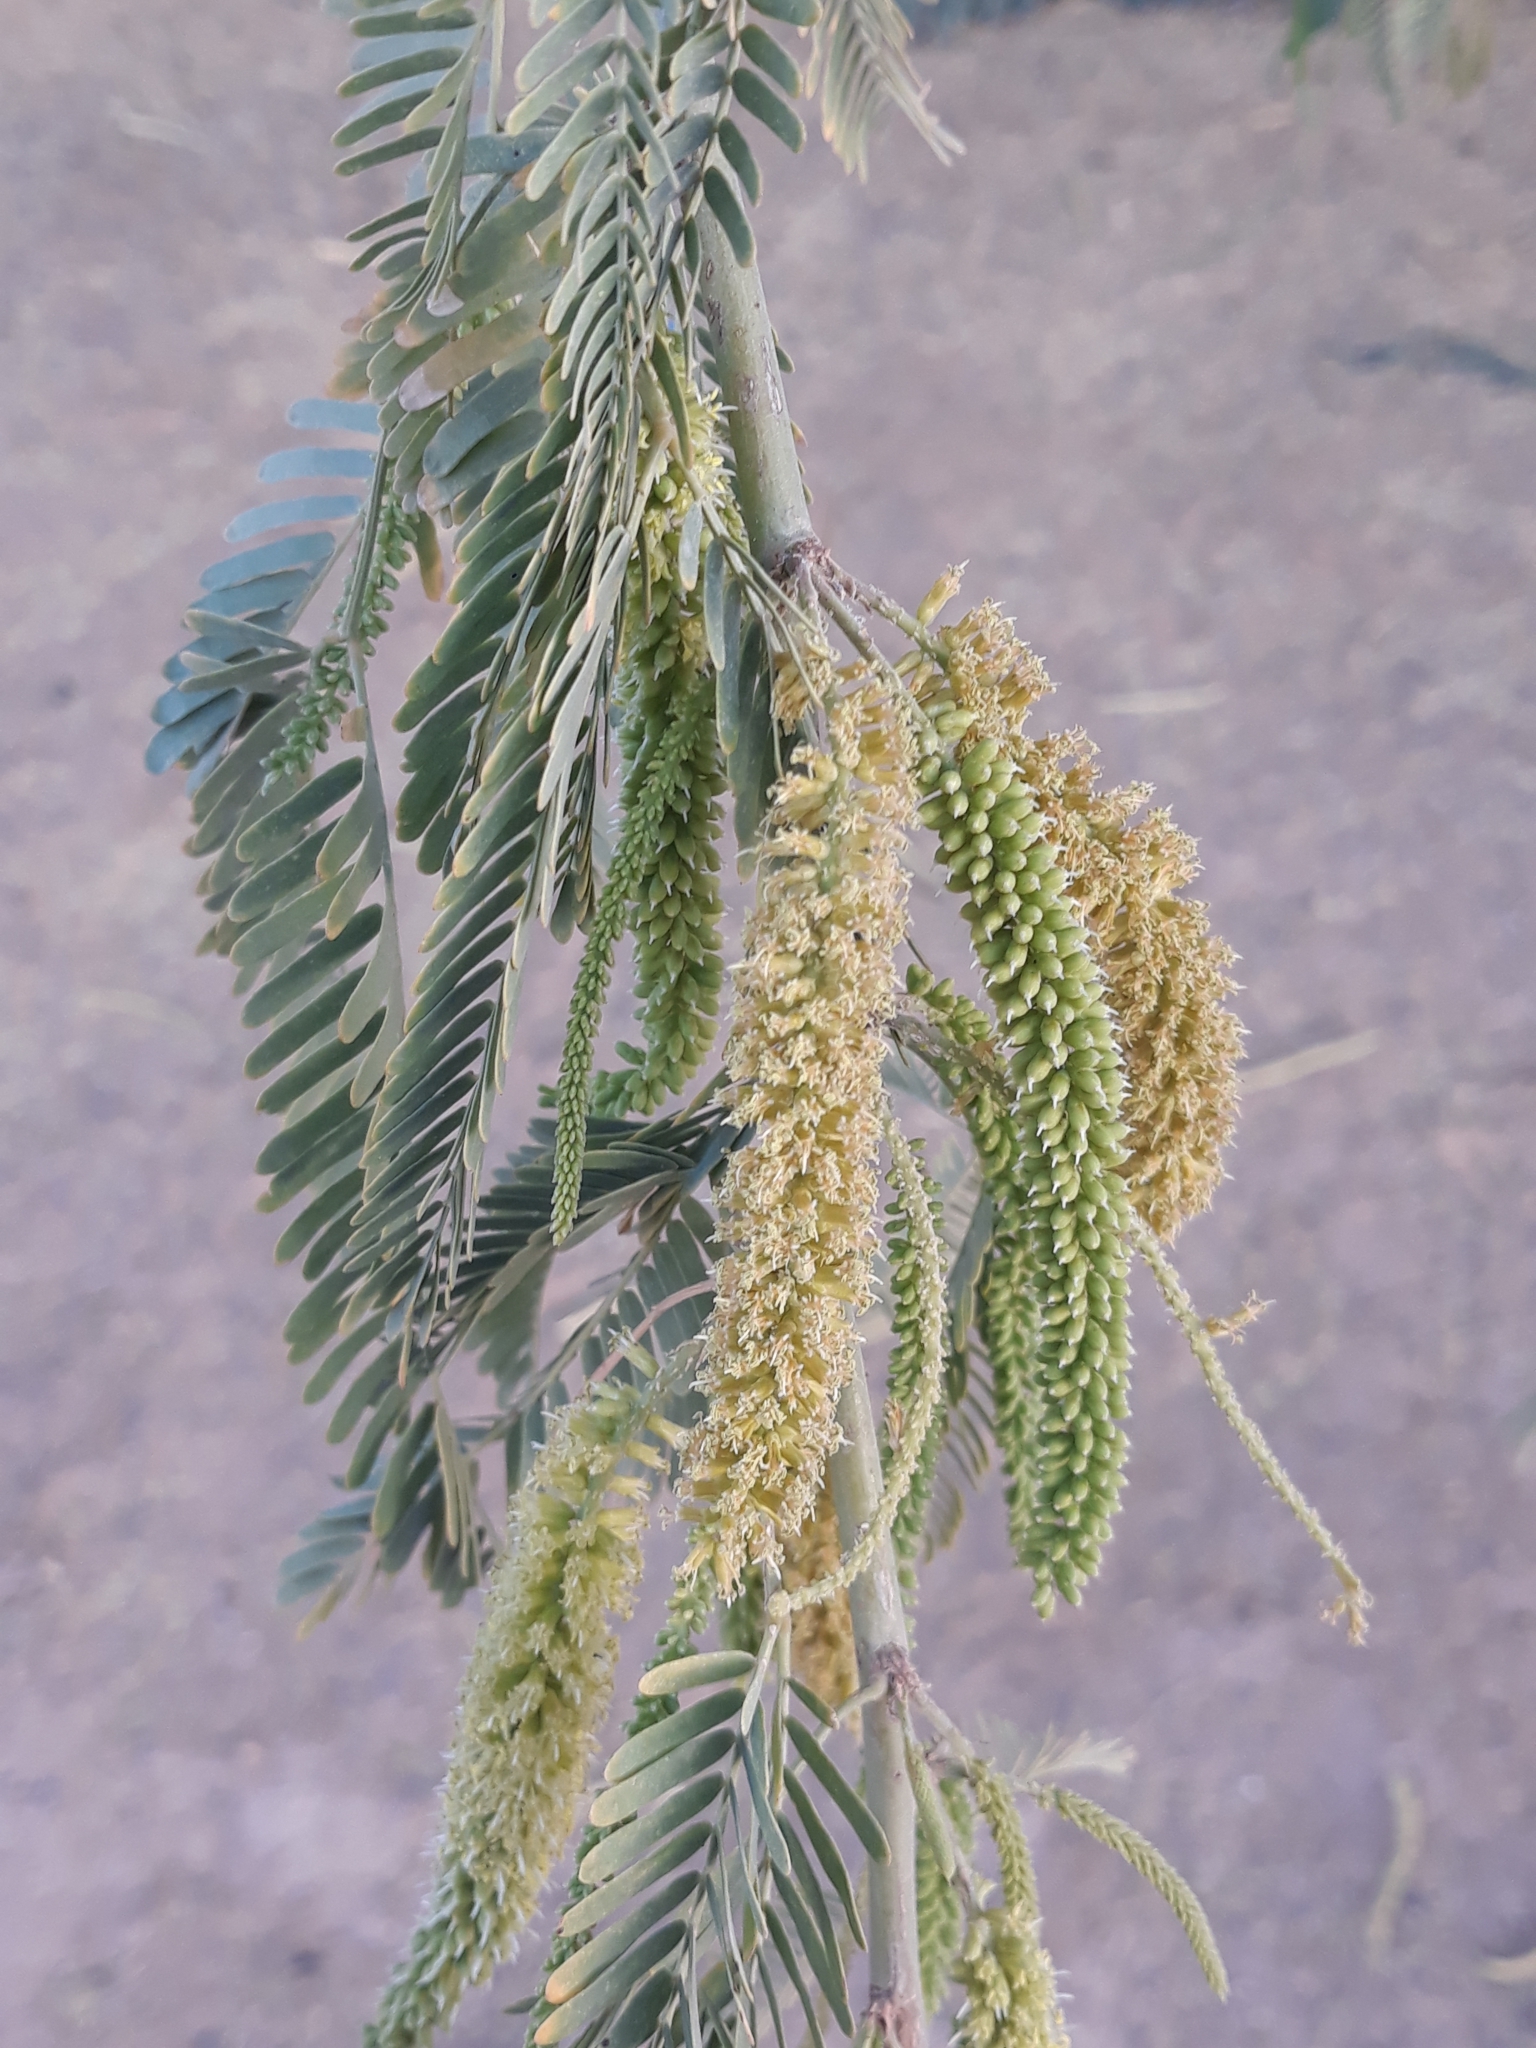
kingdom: Plantae
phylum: Tracheophyta
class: Magnoliopsida
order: Fabales
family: Fabaceae
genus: Prosopis
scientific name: Prosopis juliflora
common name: Mesquite
